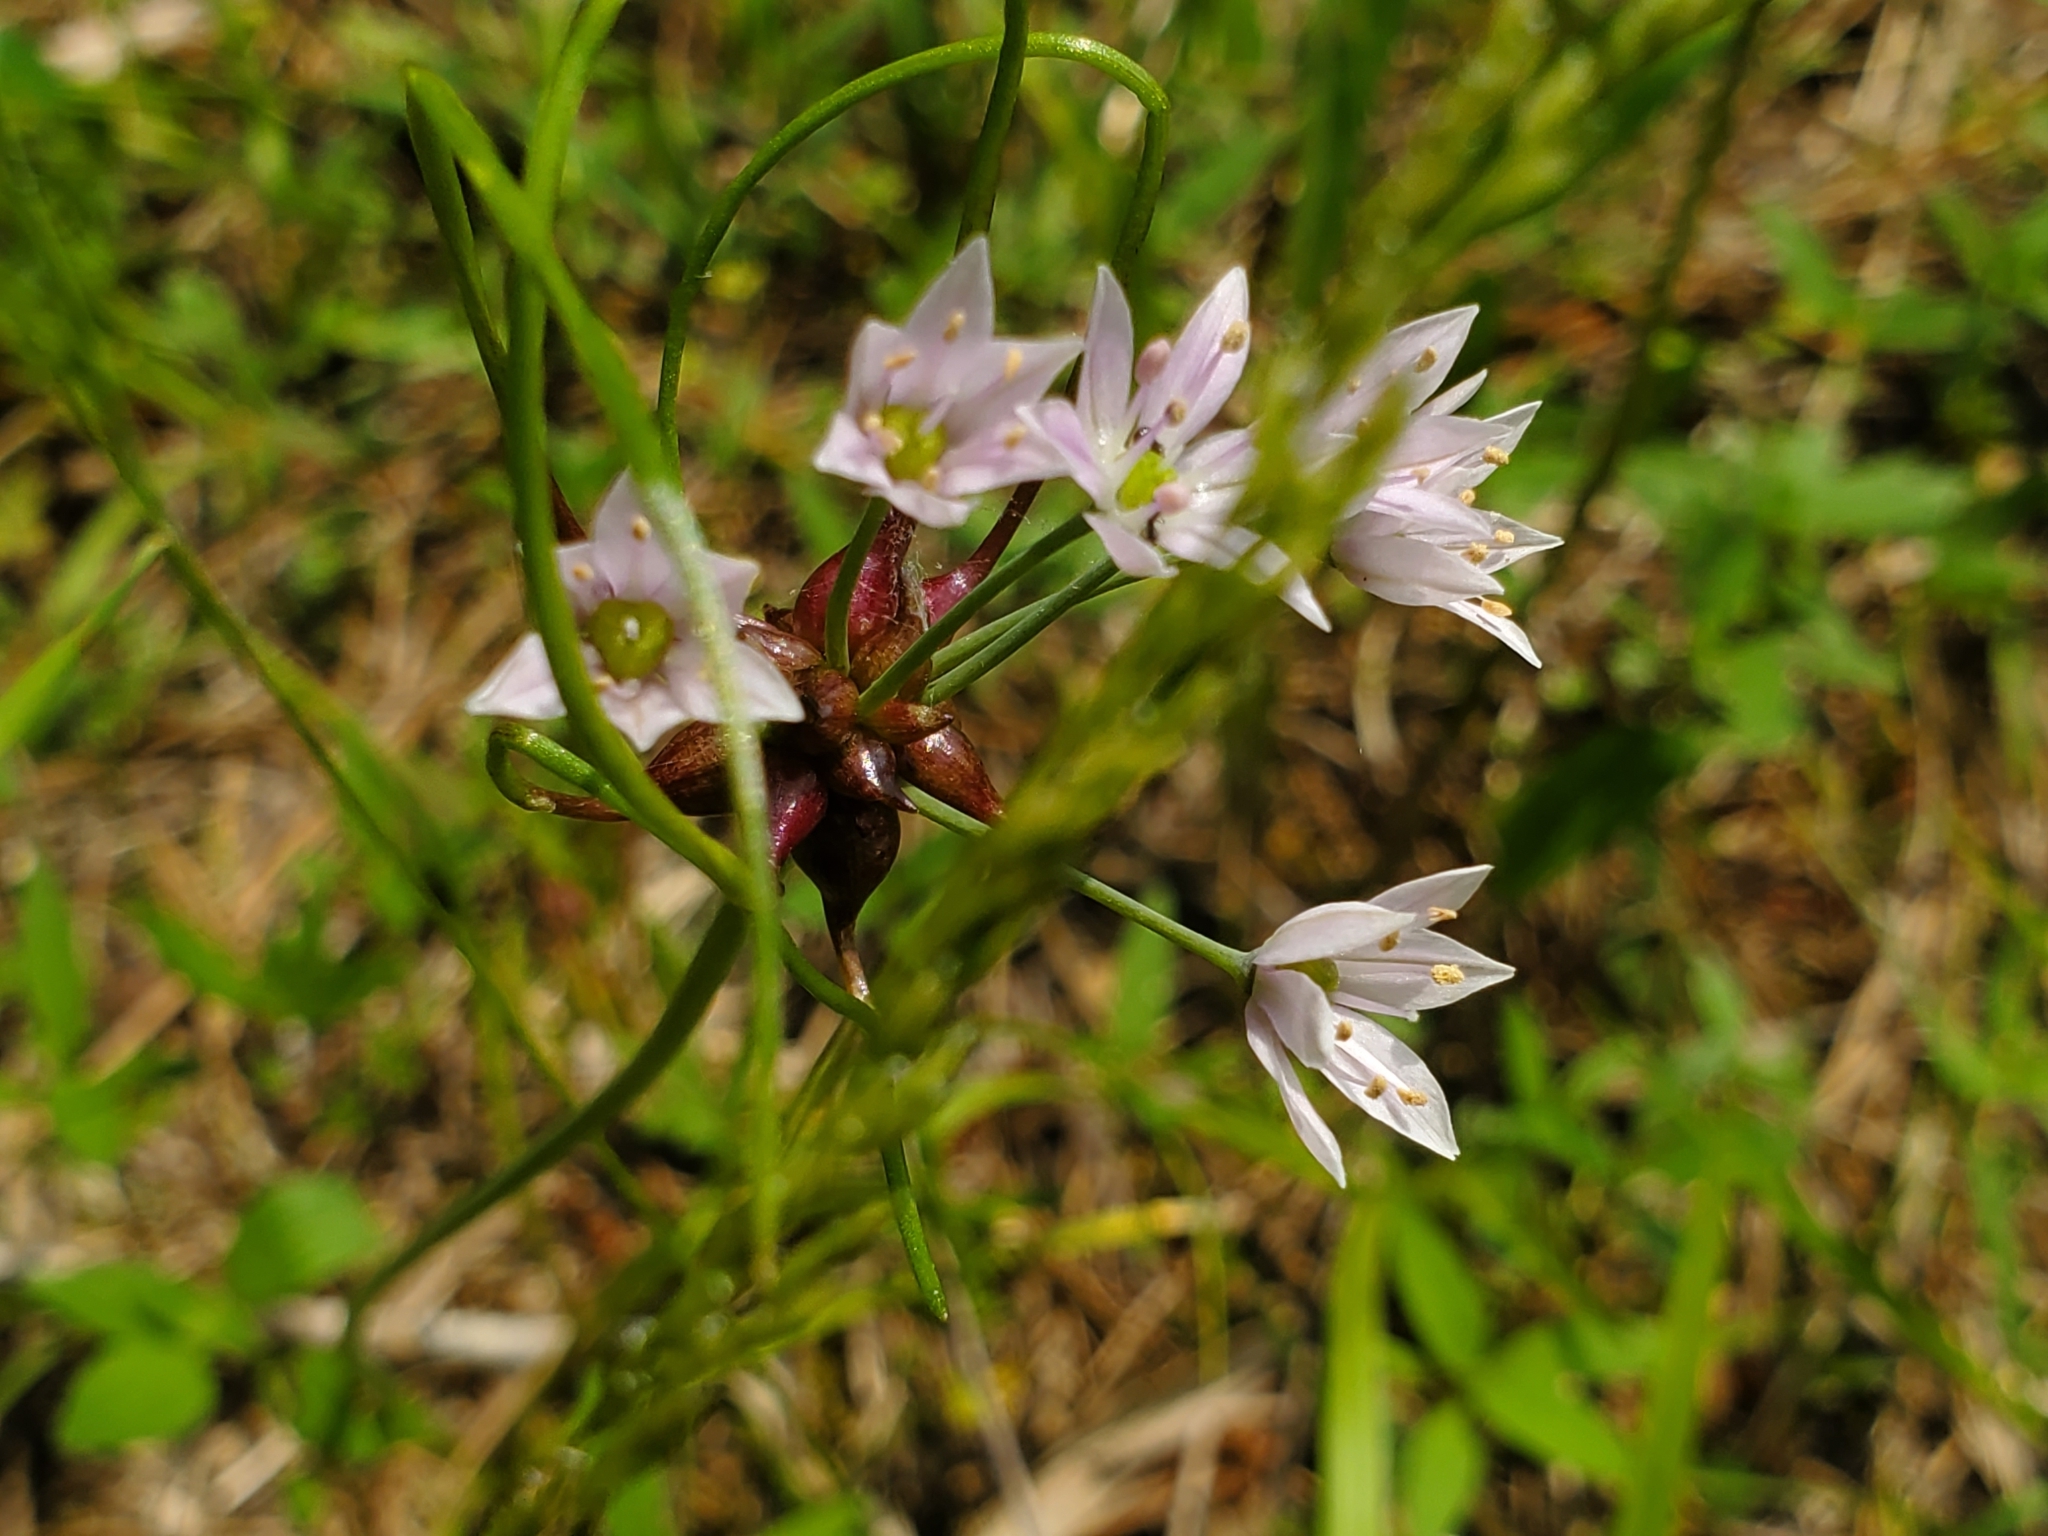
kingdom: Plantae
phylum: Tracheophyta
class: Liliopsida
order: Asparagales
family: Amaryllidaceae
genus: Allium
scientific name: Allium canadense
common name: Meadow garlic
